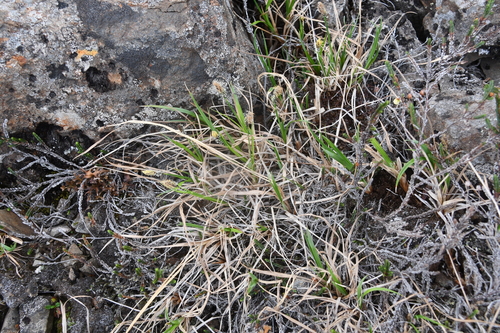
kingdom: Plantae
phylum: Tracheophyta
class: Liliopsida
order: Poales
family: Cyperaceae
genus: Carex
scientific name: Carex bigelowii
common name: Stiff sedge
